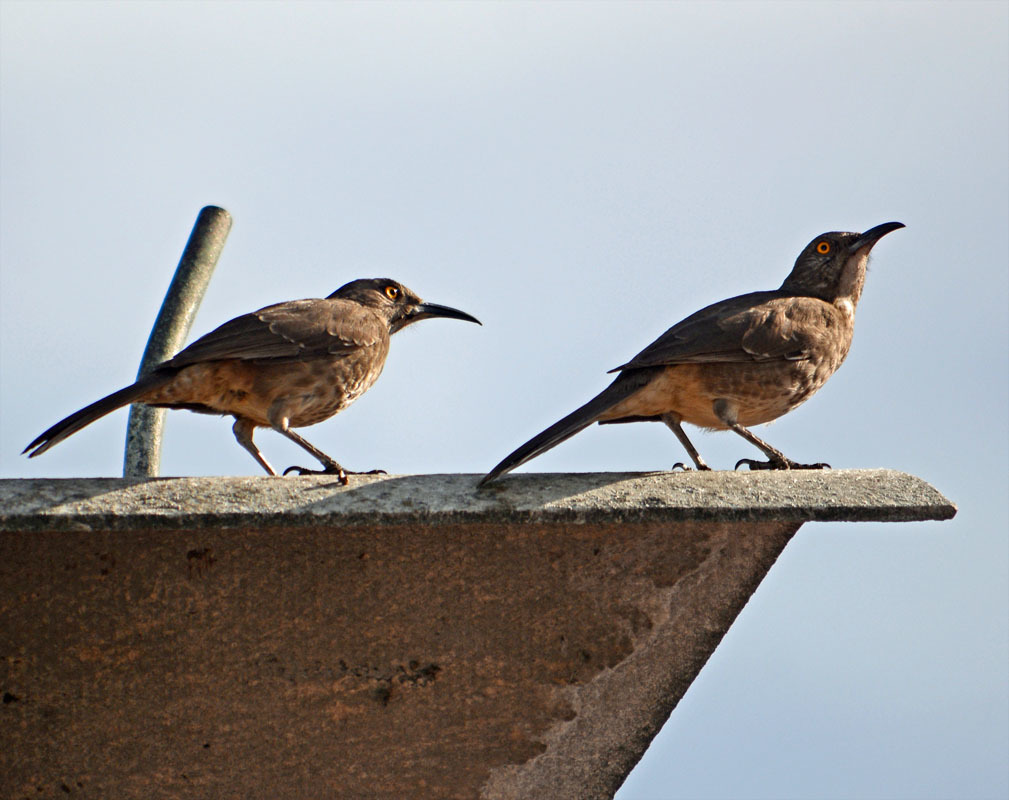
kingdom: Animalia
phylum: Chordata
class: Aves
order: Passeriformes
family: Mimidae
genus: Toxostoma
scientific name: Toxostoma curvirostre
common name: Curve-billed thrasher
